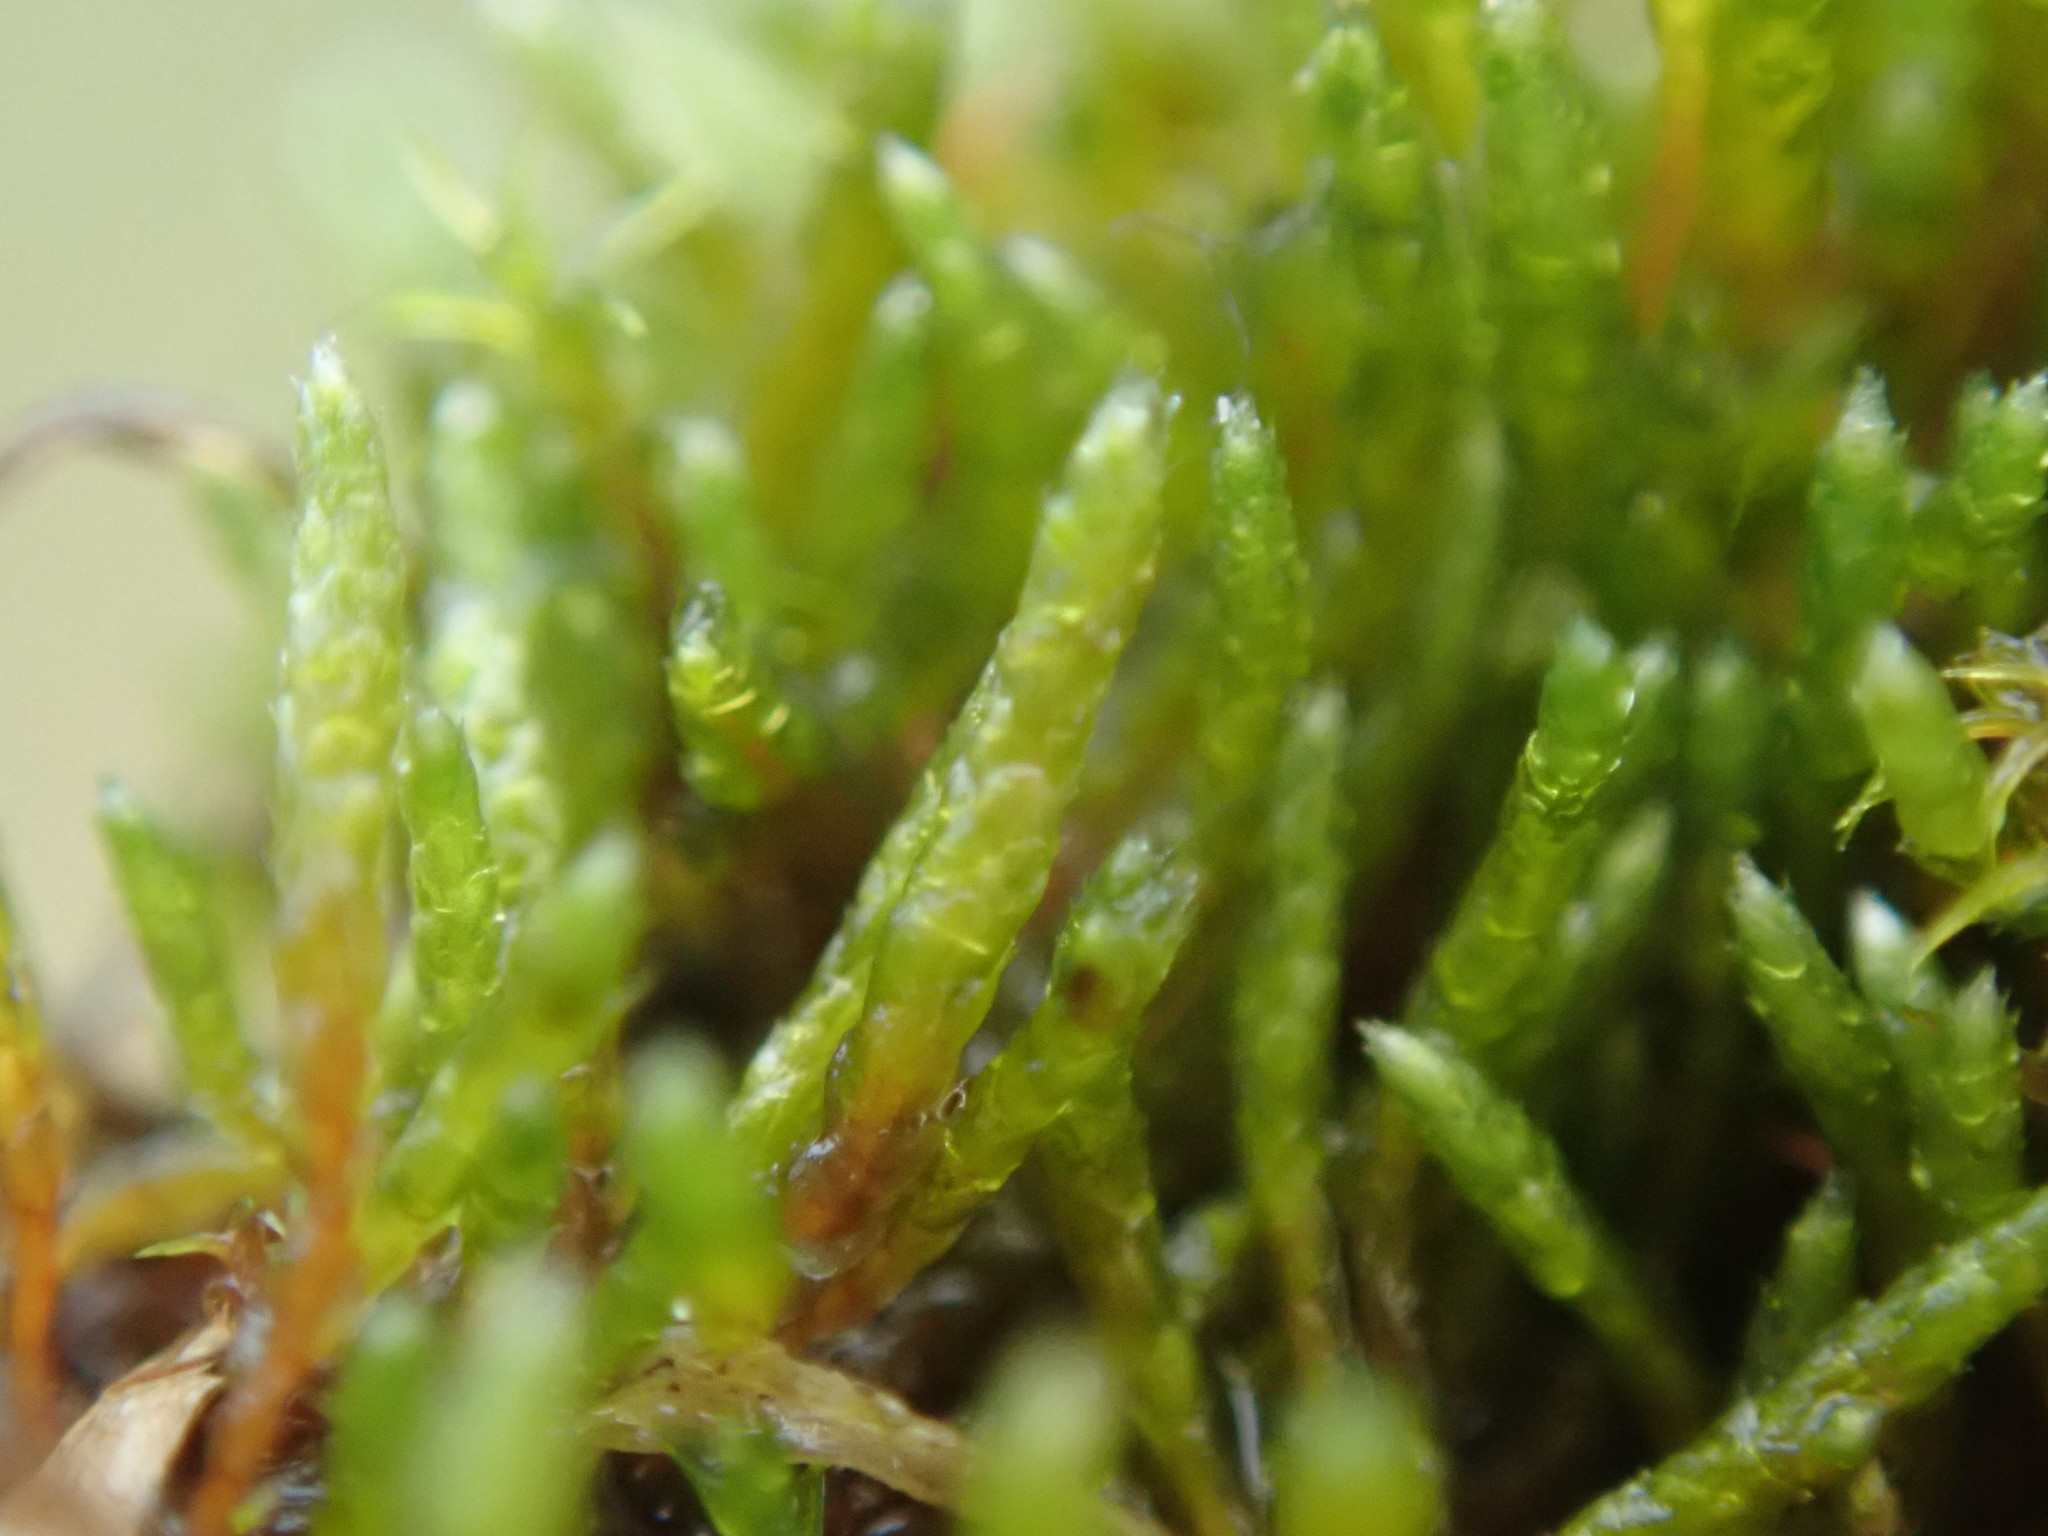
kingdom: Plantae
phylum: Bryophyta
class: Bryopsida
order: Bryales
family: Bryaceae
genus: Bryum
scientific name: Bryum argenteum
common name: Silver-moss
